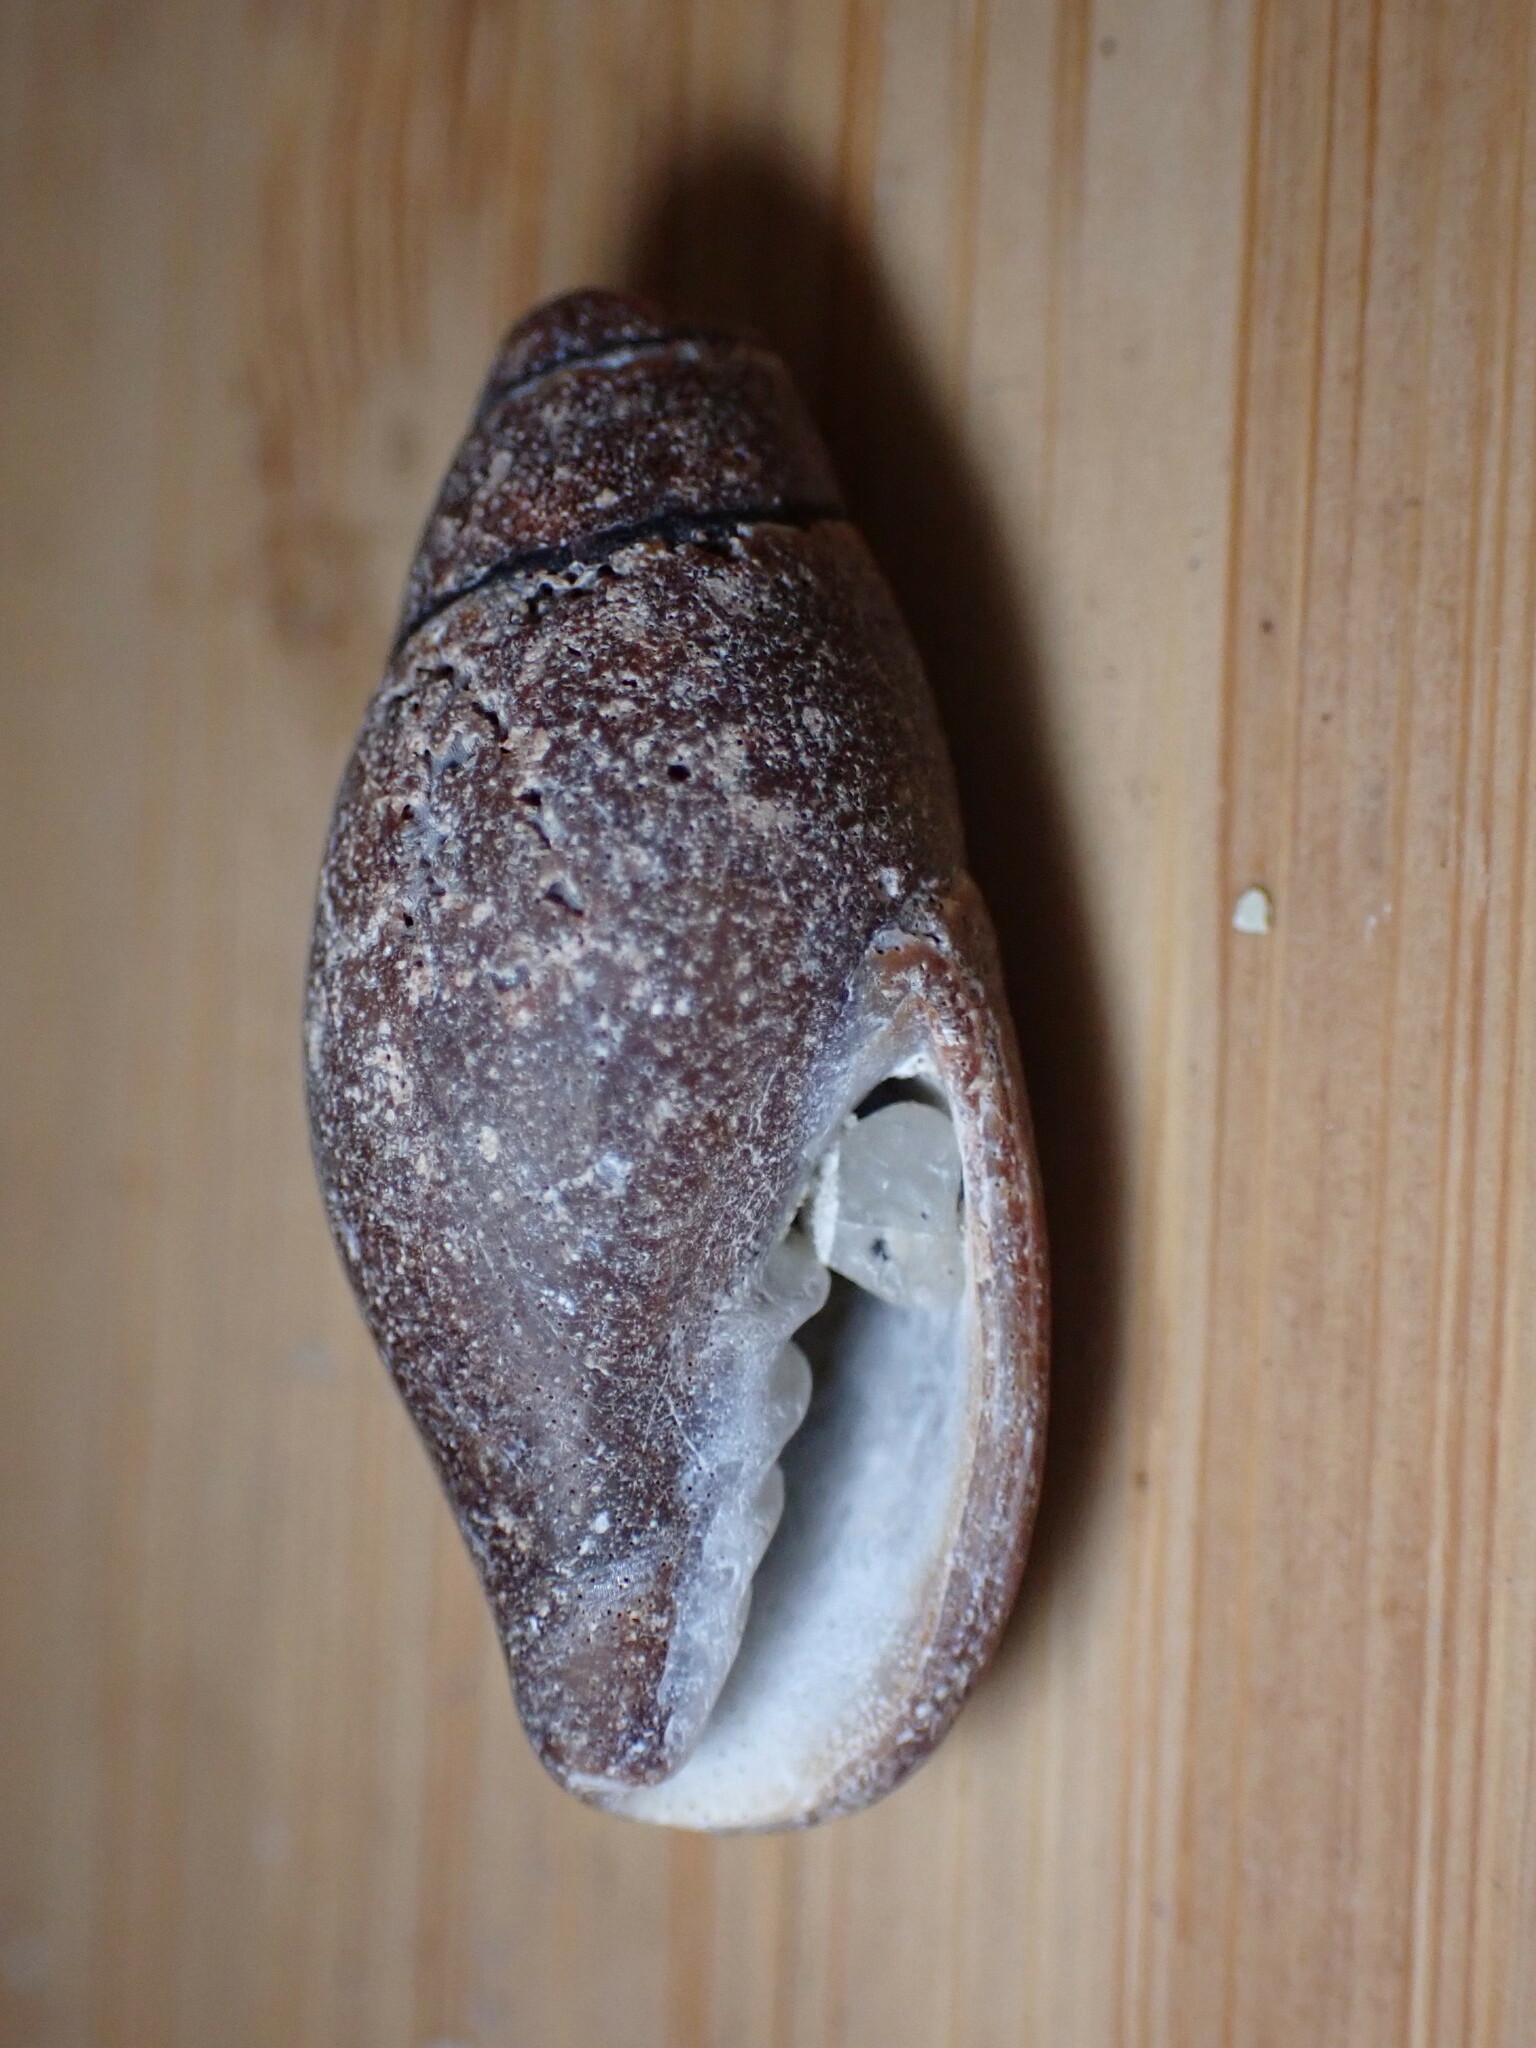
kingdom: Animalia
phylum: Mollusca
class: Gastropoda
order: Neogastropoda
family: Mitridae
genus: Atrimitra
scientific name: Atrimitra idae
